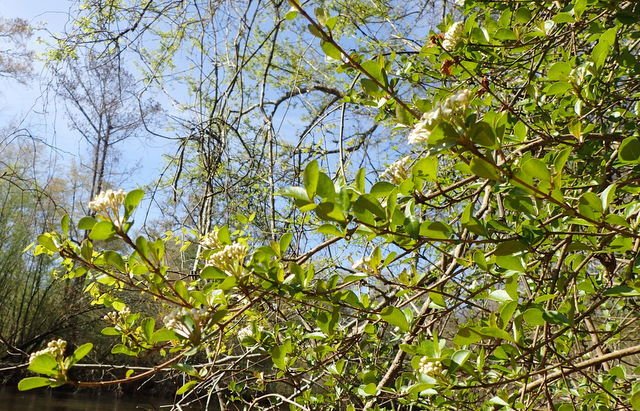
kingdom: Plantae
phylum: Tracheophyta
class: Magnoliopsida
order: Dipsacales
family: Viburnaceae
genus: Viburnum
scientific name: Viburnum obovatum
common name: Walter's viburnum
